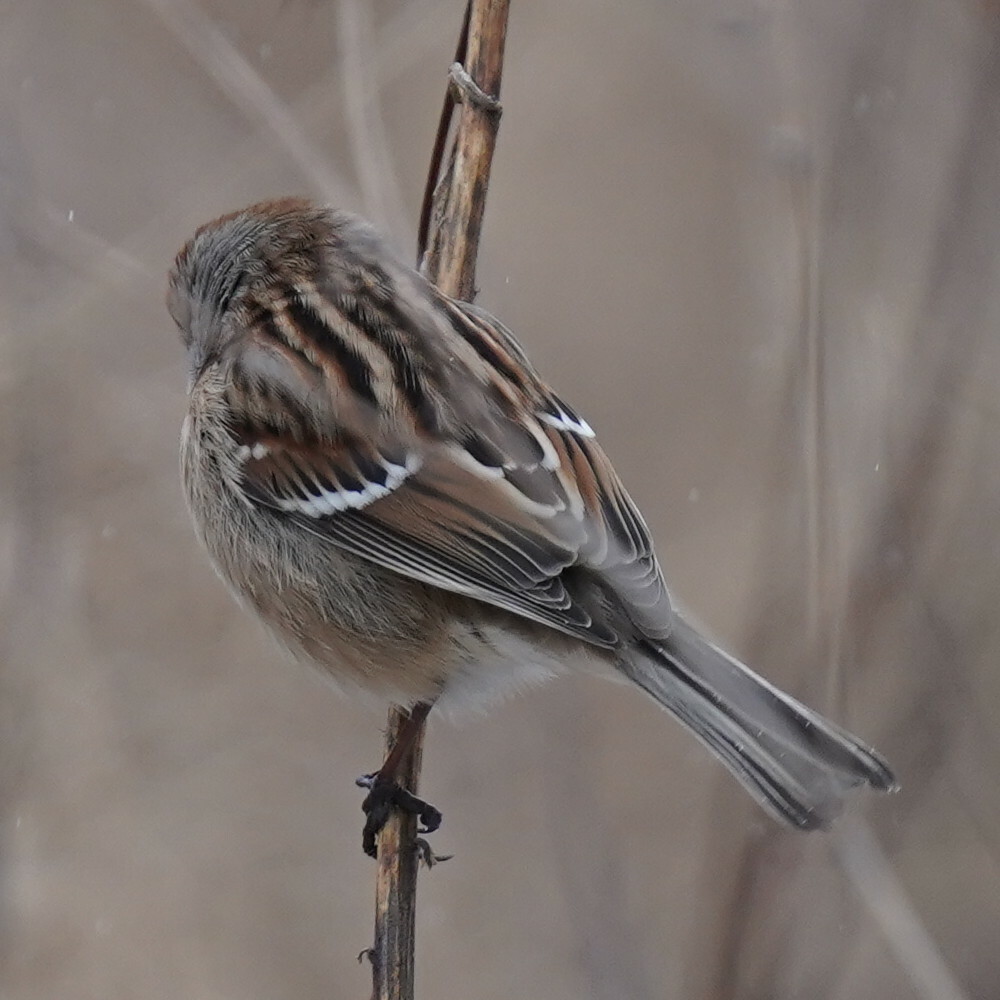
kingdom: Animalia
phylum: Chordata
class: Aves
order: Passeriformes
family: Passerellidae
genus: Spizelloides
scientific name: Spizelloides arborea
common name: American tree sparrow
